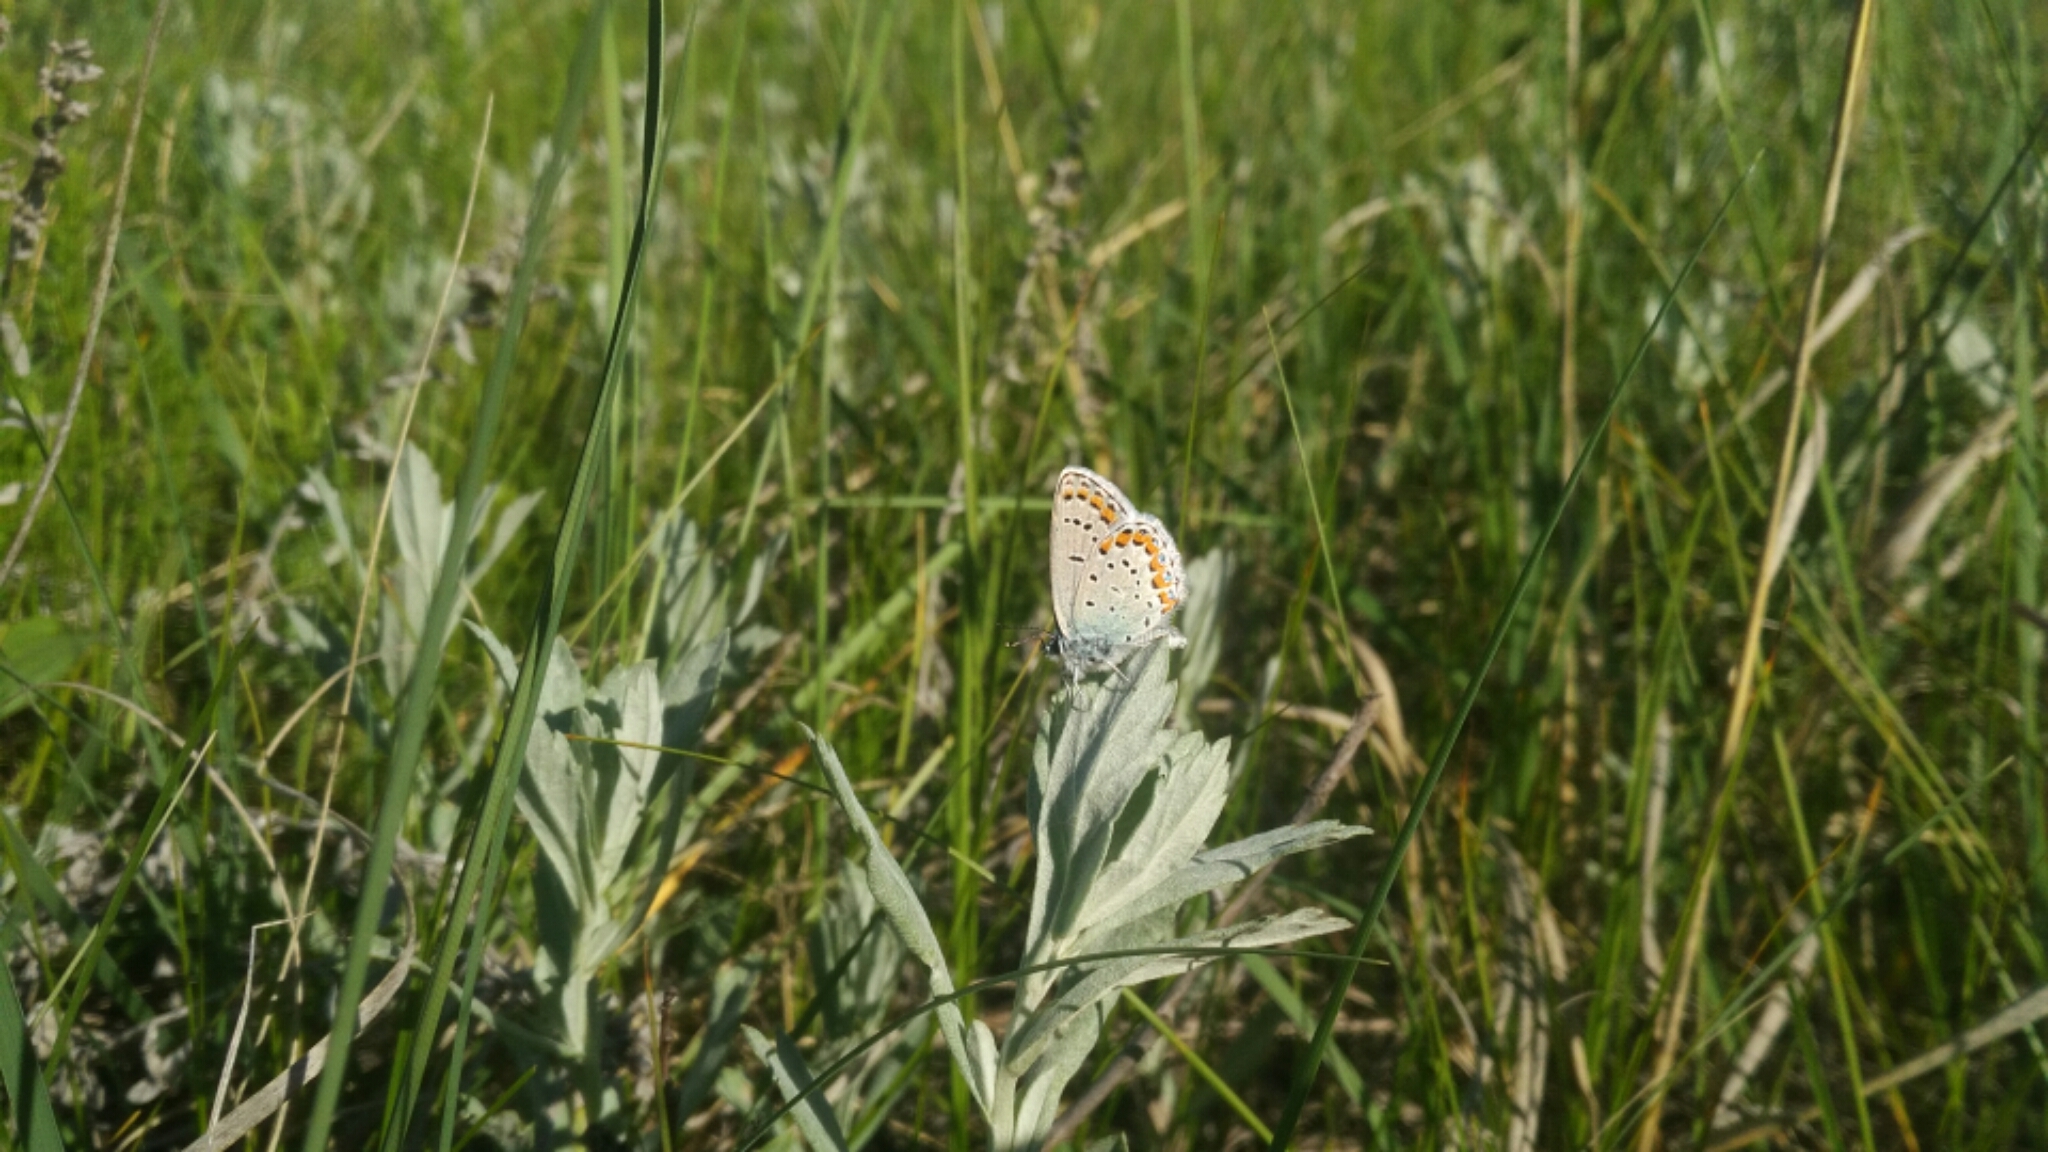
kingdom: Animalia
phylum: Arthropoda
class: Insecta
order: Lepidoptera
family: Lycaenidae
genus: Lycaeides
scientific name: Lycaeides melissa
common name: Melissa blue
